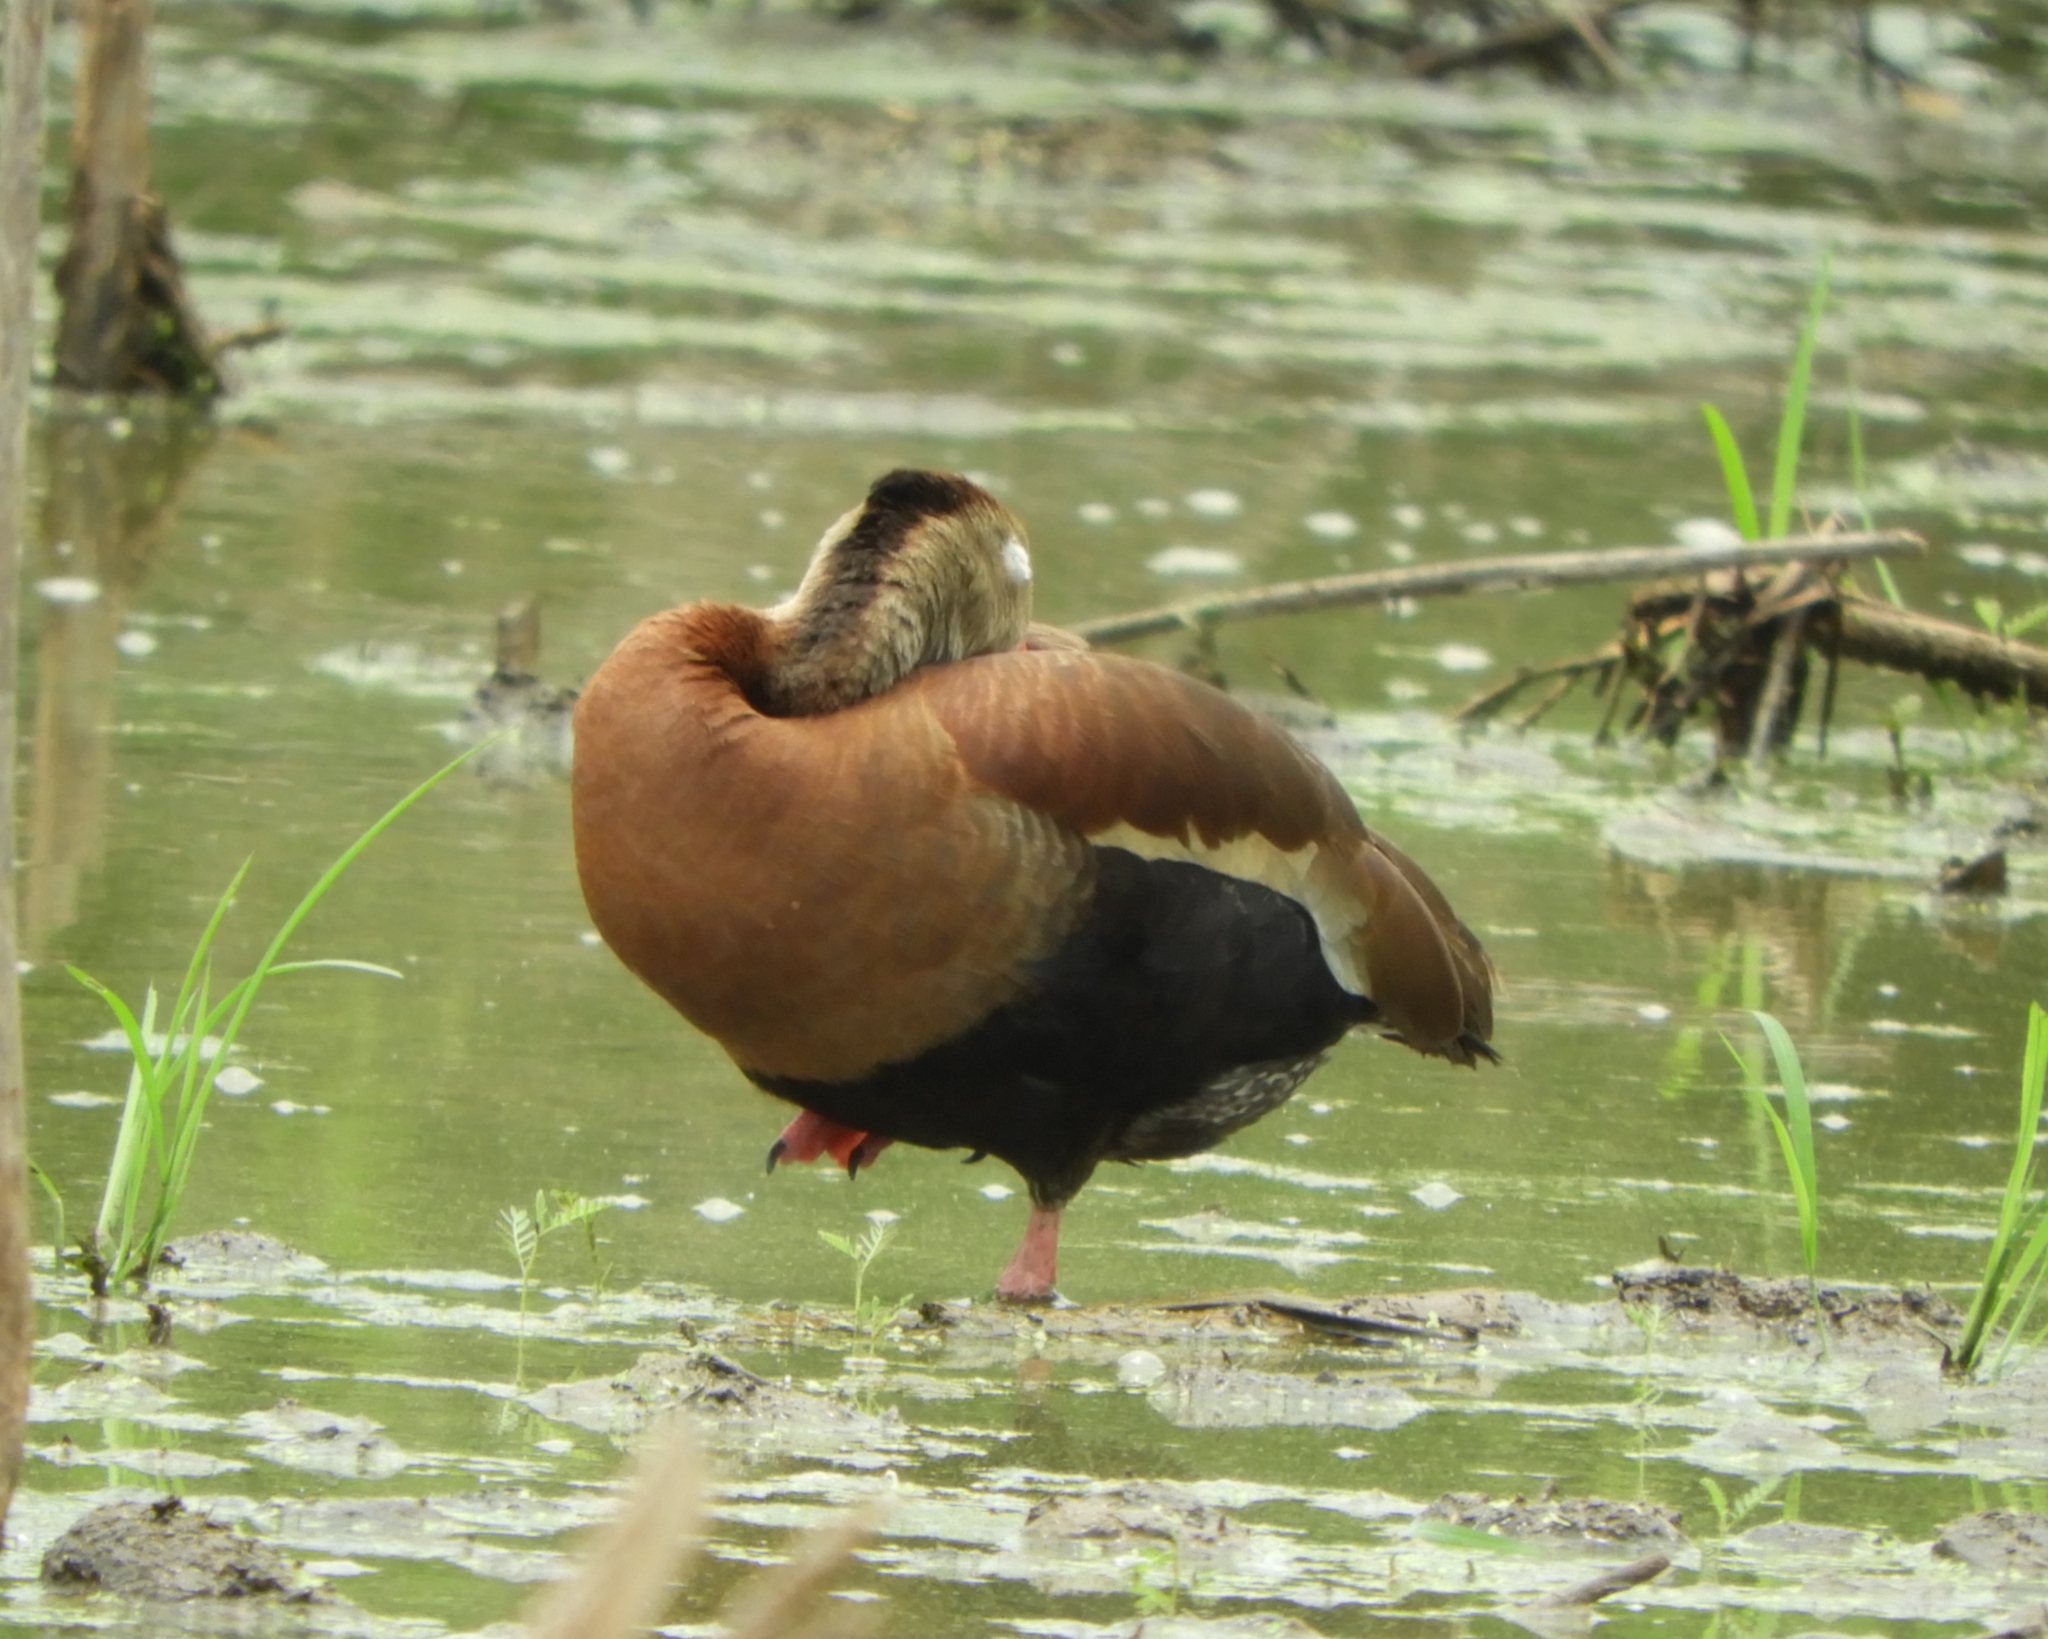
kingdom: Animalia
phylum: Chordata
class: Aves
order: Anseriformes
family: Anatidae
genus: Dendrocygna
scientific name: Dendrocygna autumnalis
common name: Black-bellied whistling duck
